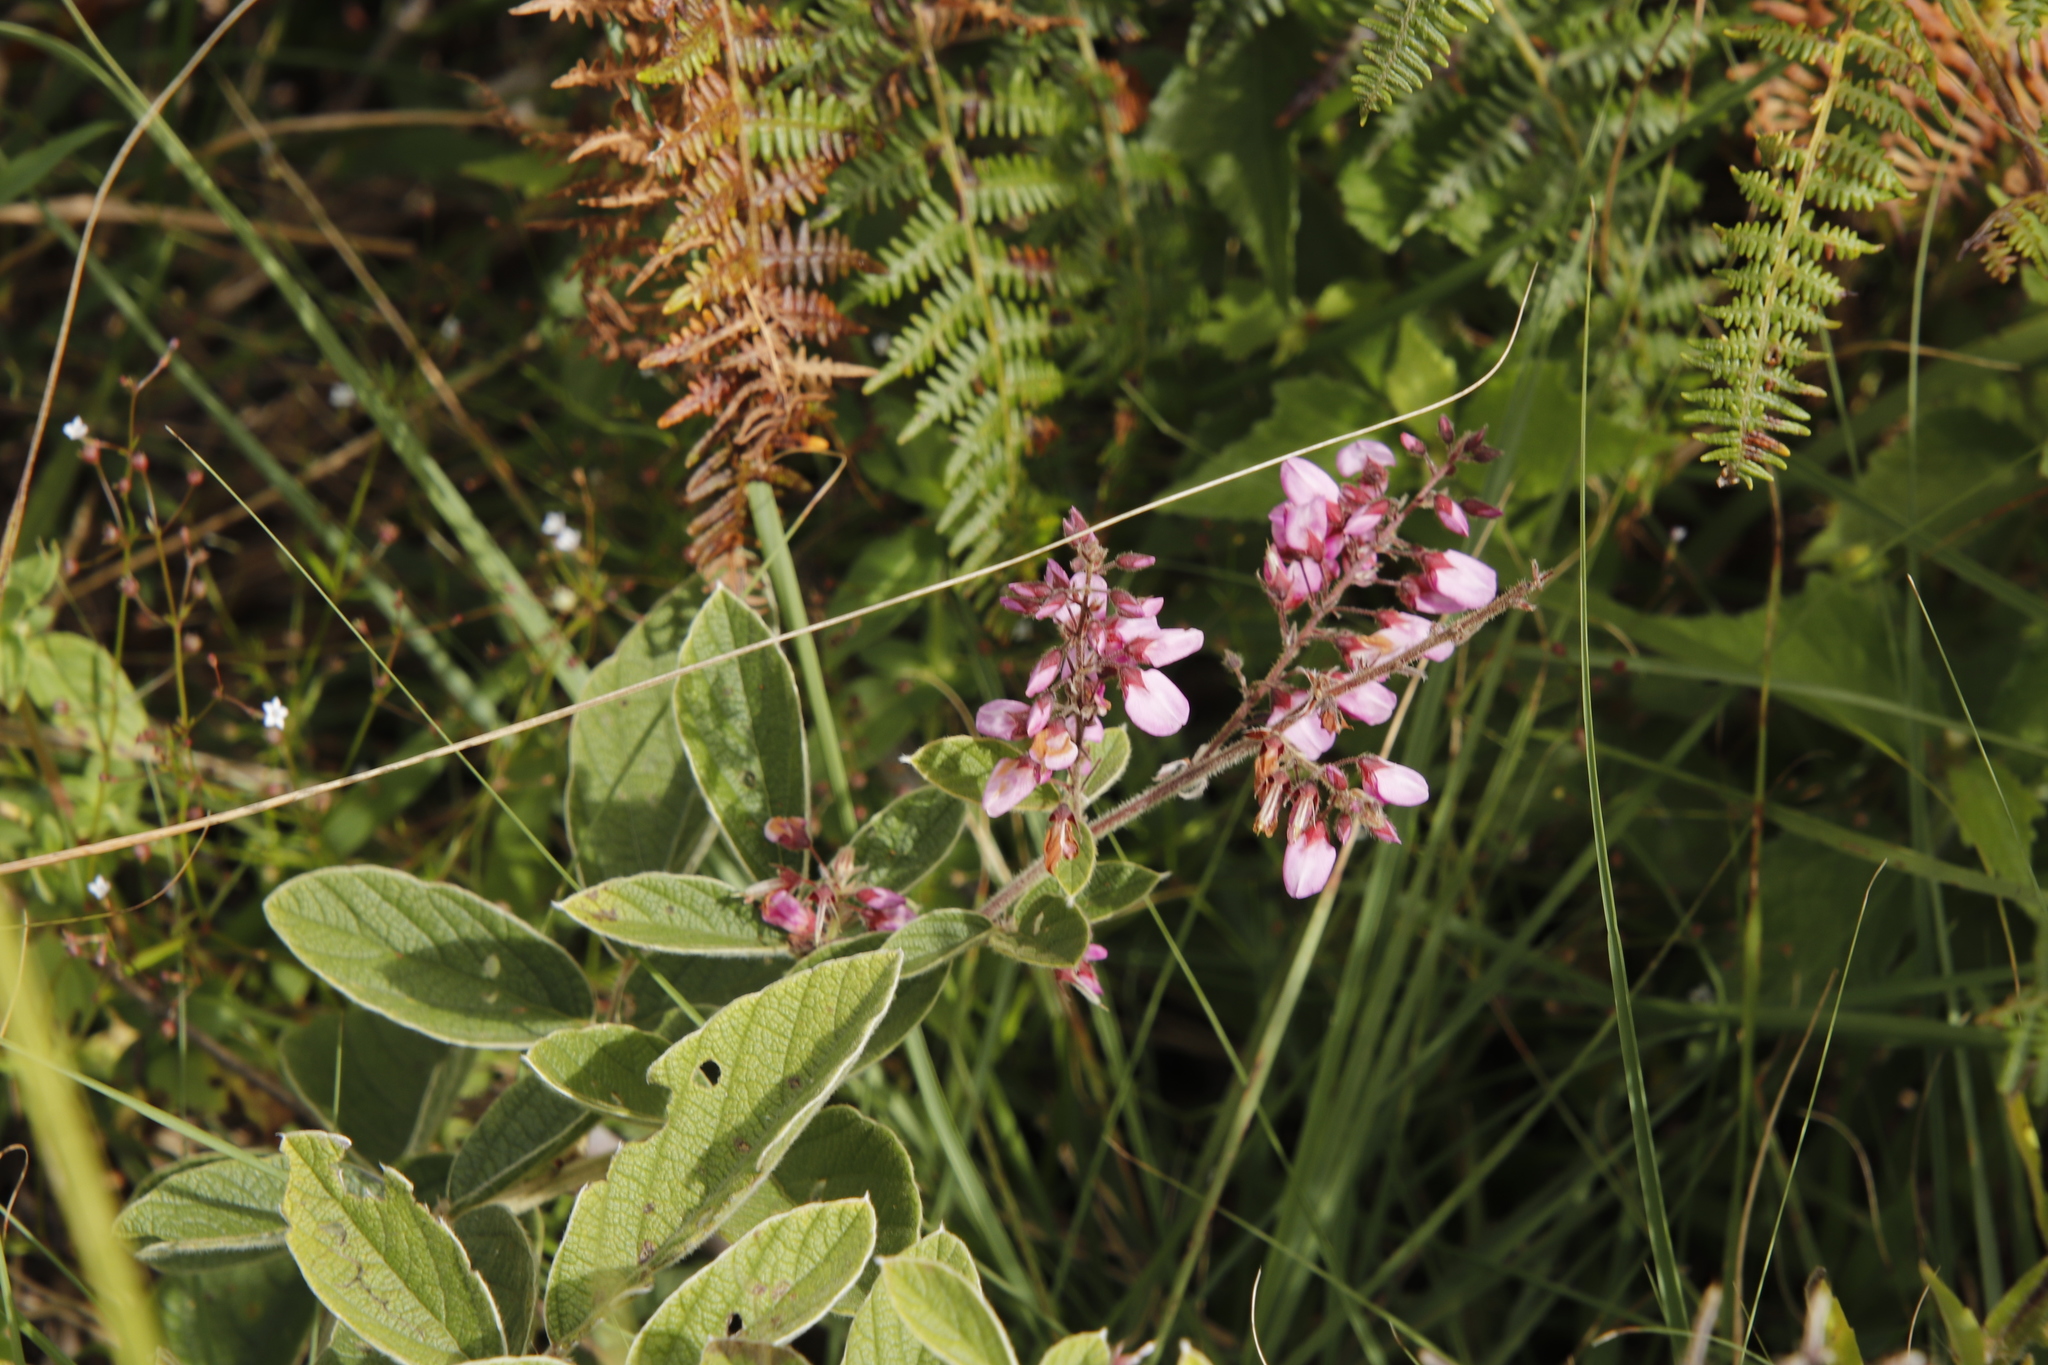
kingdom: Plantae
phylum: Tracheophyta
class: Magnoliopsida
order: Fabales
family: Fabaceae
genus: Pseudarthria
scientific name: Pseudarthria hookeri
